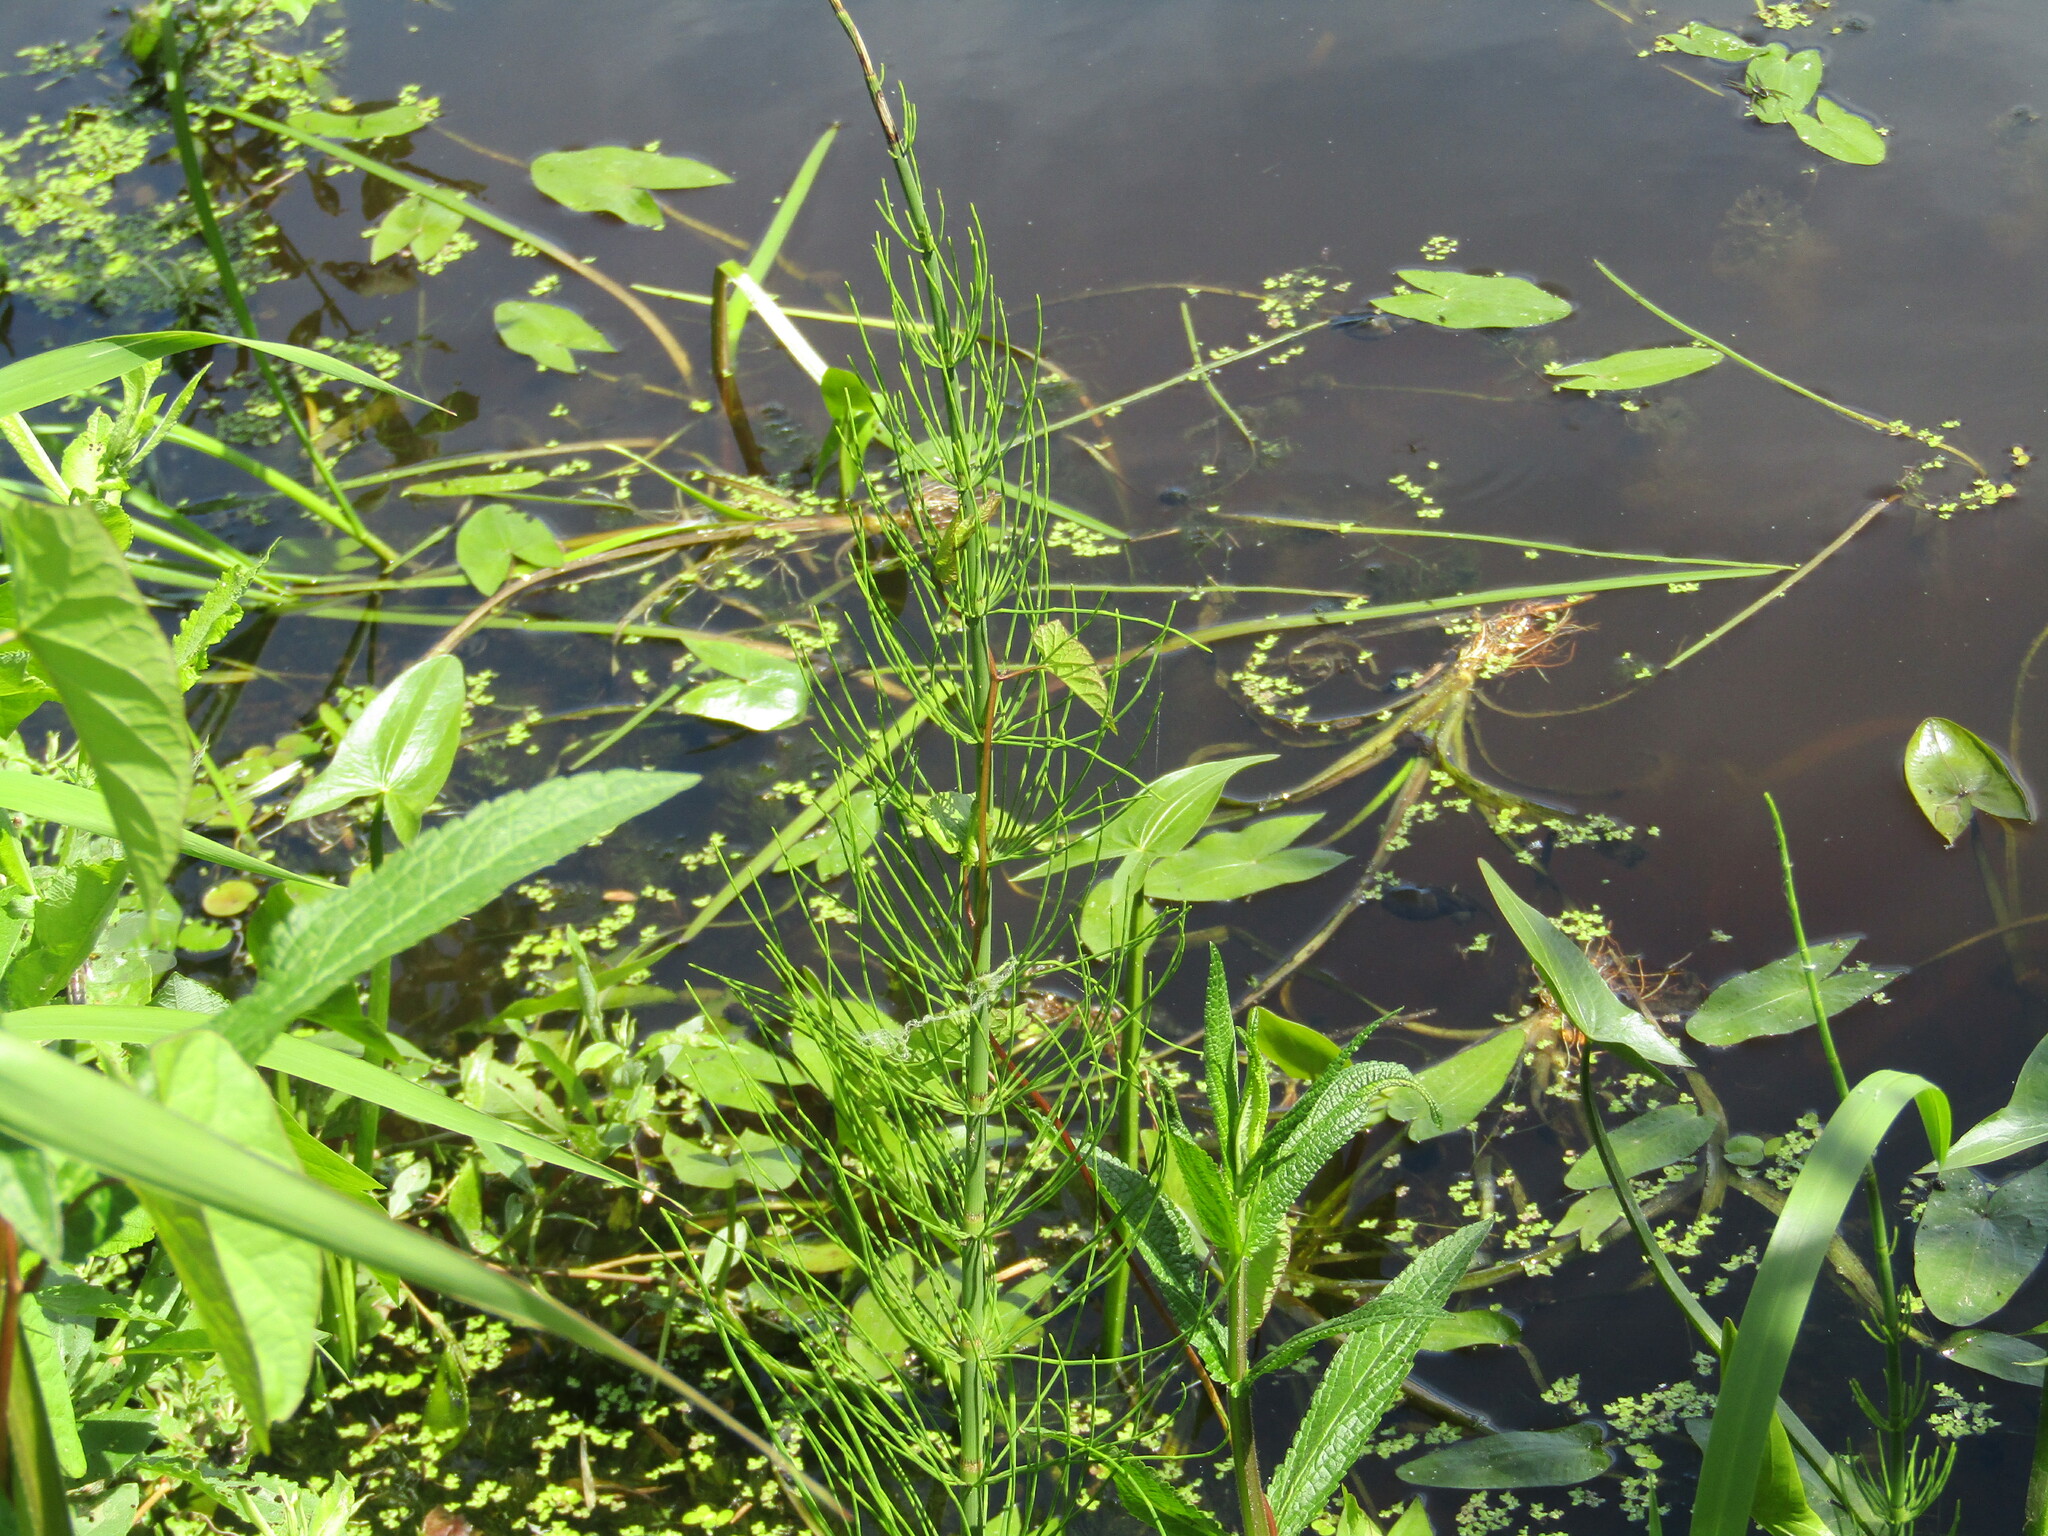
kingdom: Plantae
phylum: Tracheophyta
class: Polypodiopsida
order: Equisetales
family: Equisetaceae
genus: Equisetum
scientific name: Equisetum fluviatile
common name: Water horsetail
